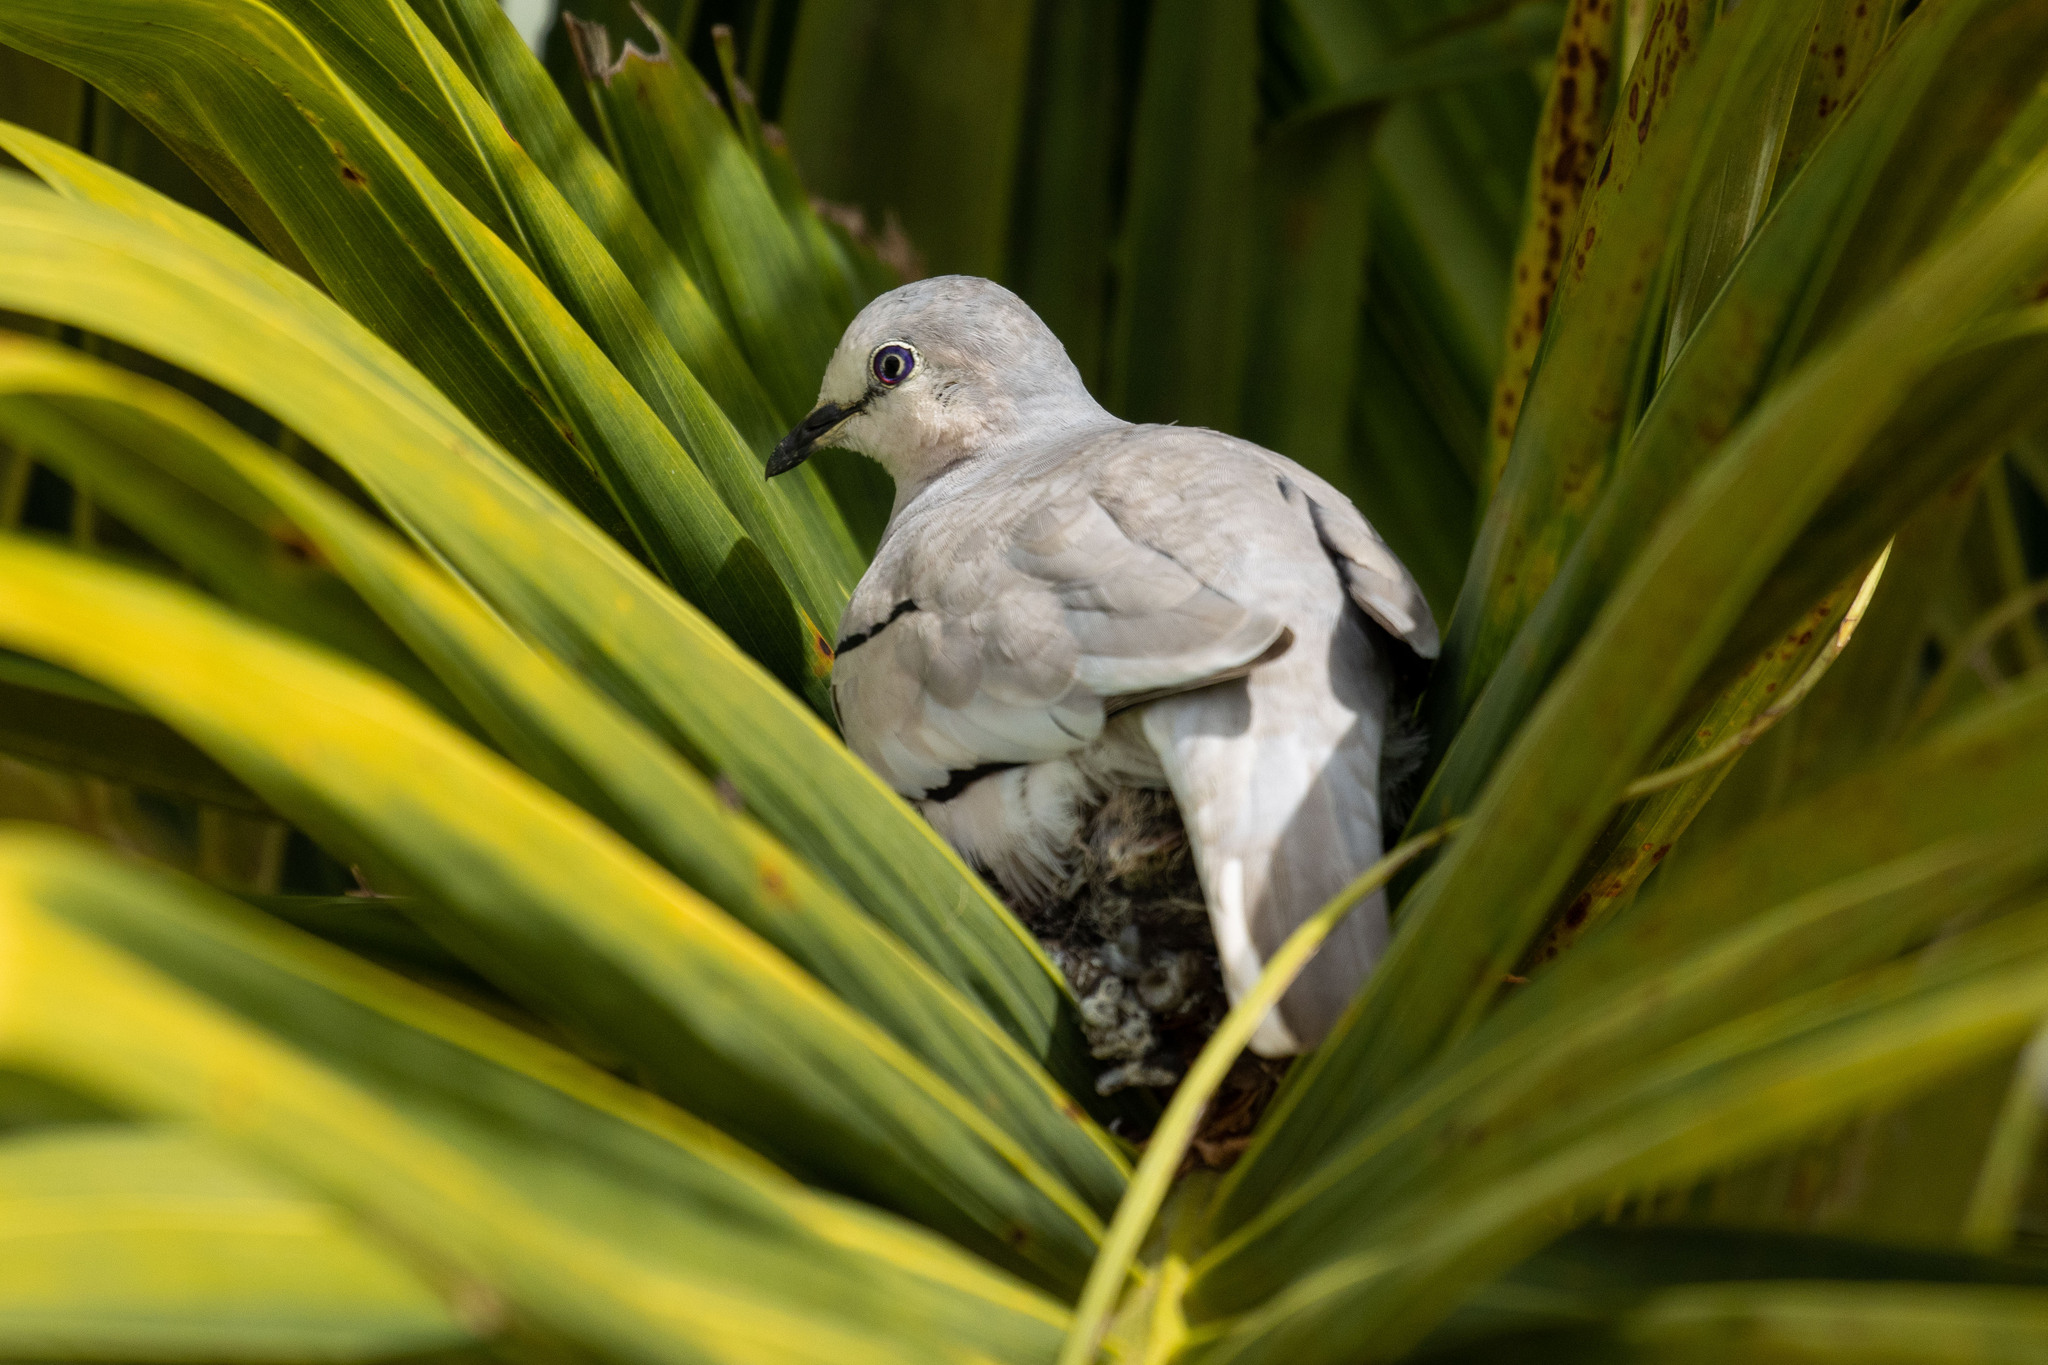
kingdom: Animalia
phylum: Chordata
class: Aves
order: Columbiformes
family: Columbidae
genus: Columbina
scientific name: Columbina picui
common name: Picui ground dove
